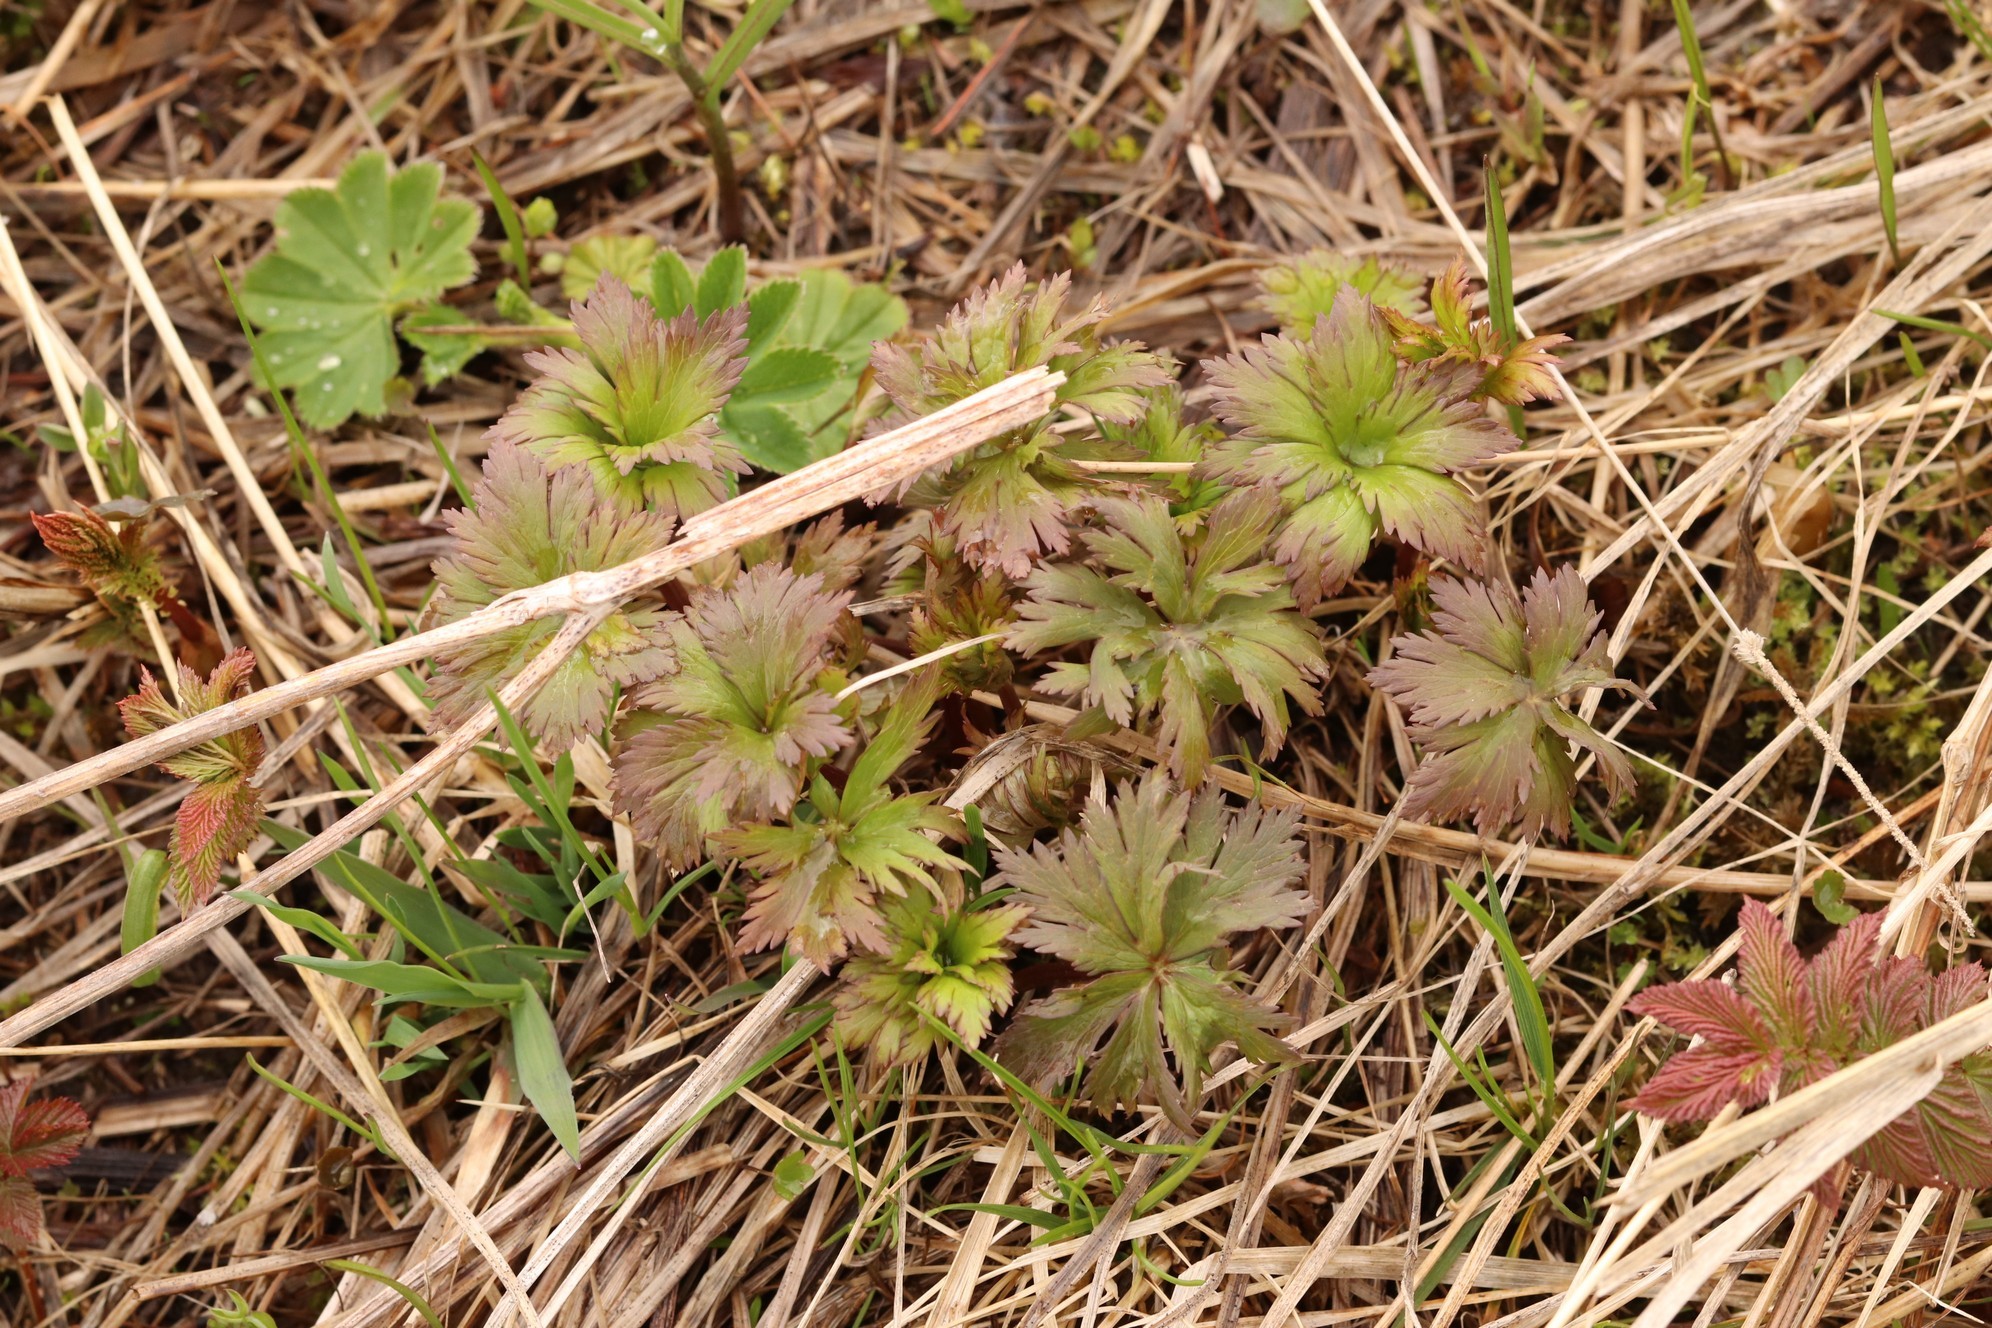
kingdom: Plantae
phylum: Tracheophyta
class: Magnoliopsida
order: Rosales
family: Rosaceae
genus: Alchemilla
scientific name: Alchemilla
